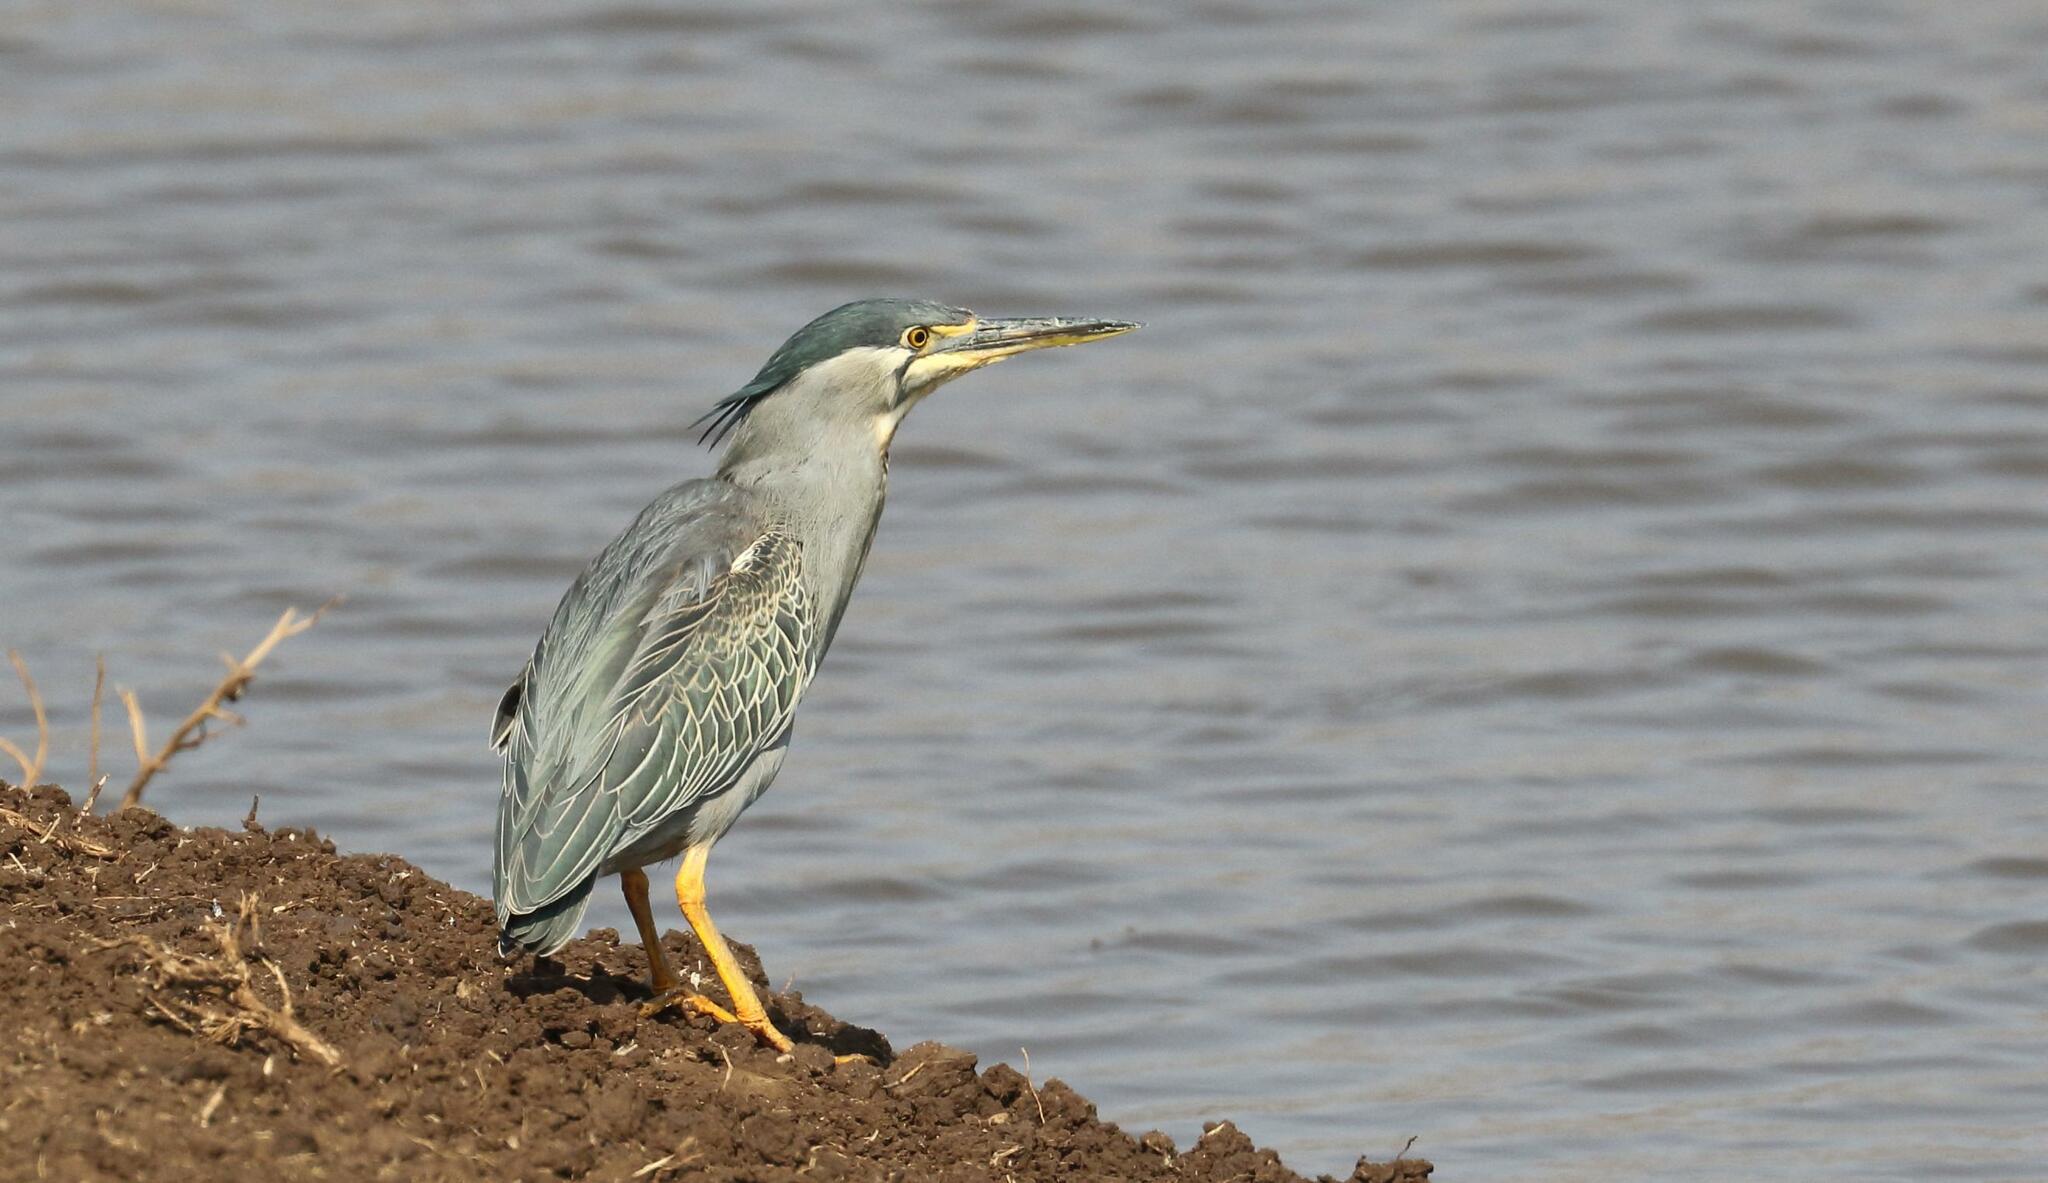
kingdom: Animalia
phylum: Chordata
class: Aves
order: Pelecaniformes
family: Ardeidae
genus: Butorides
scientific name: Butorides striata
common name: Striated heron
